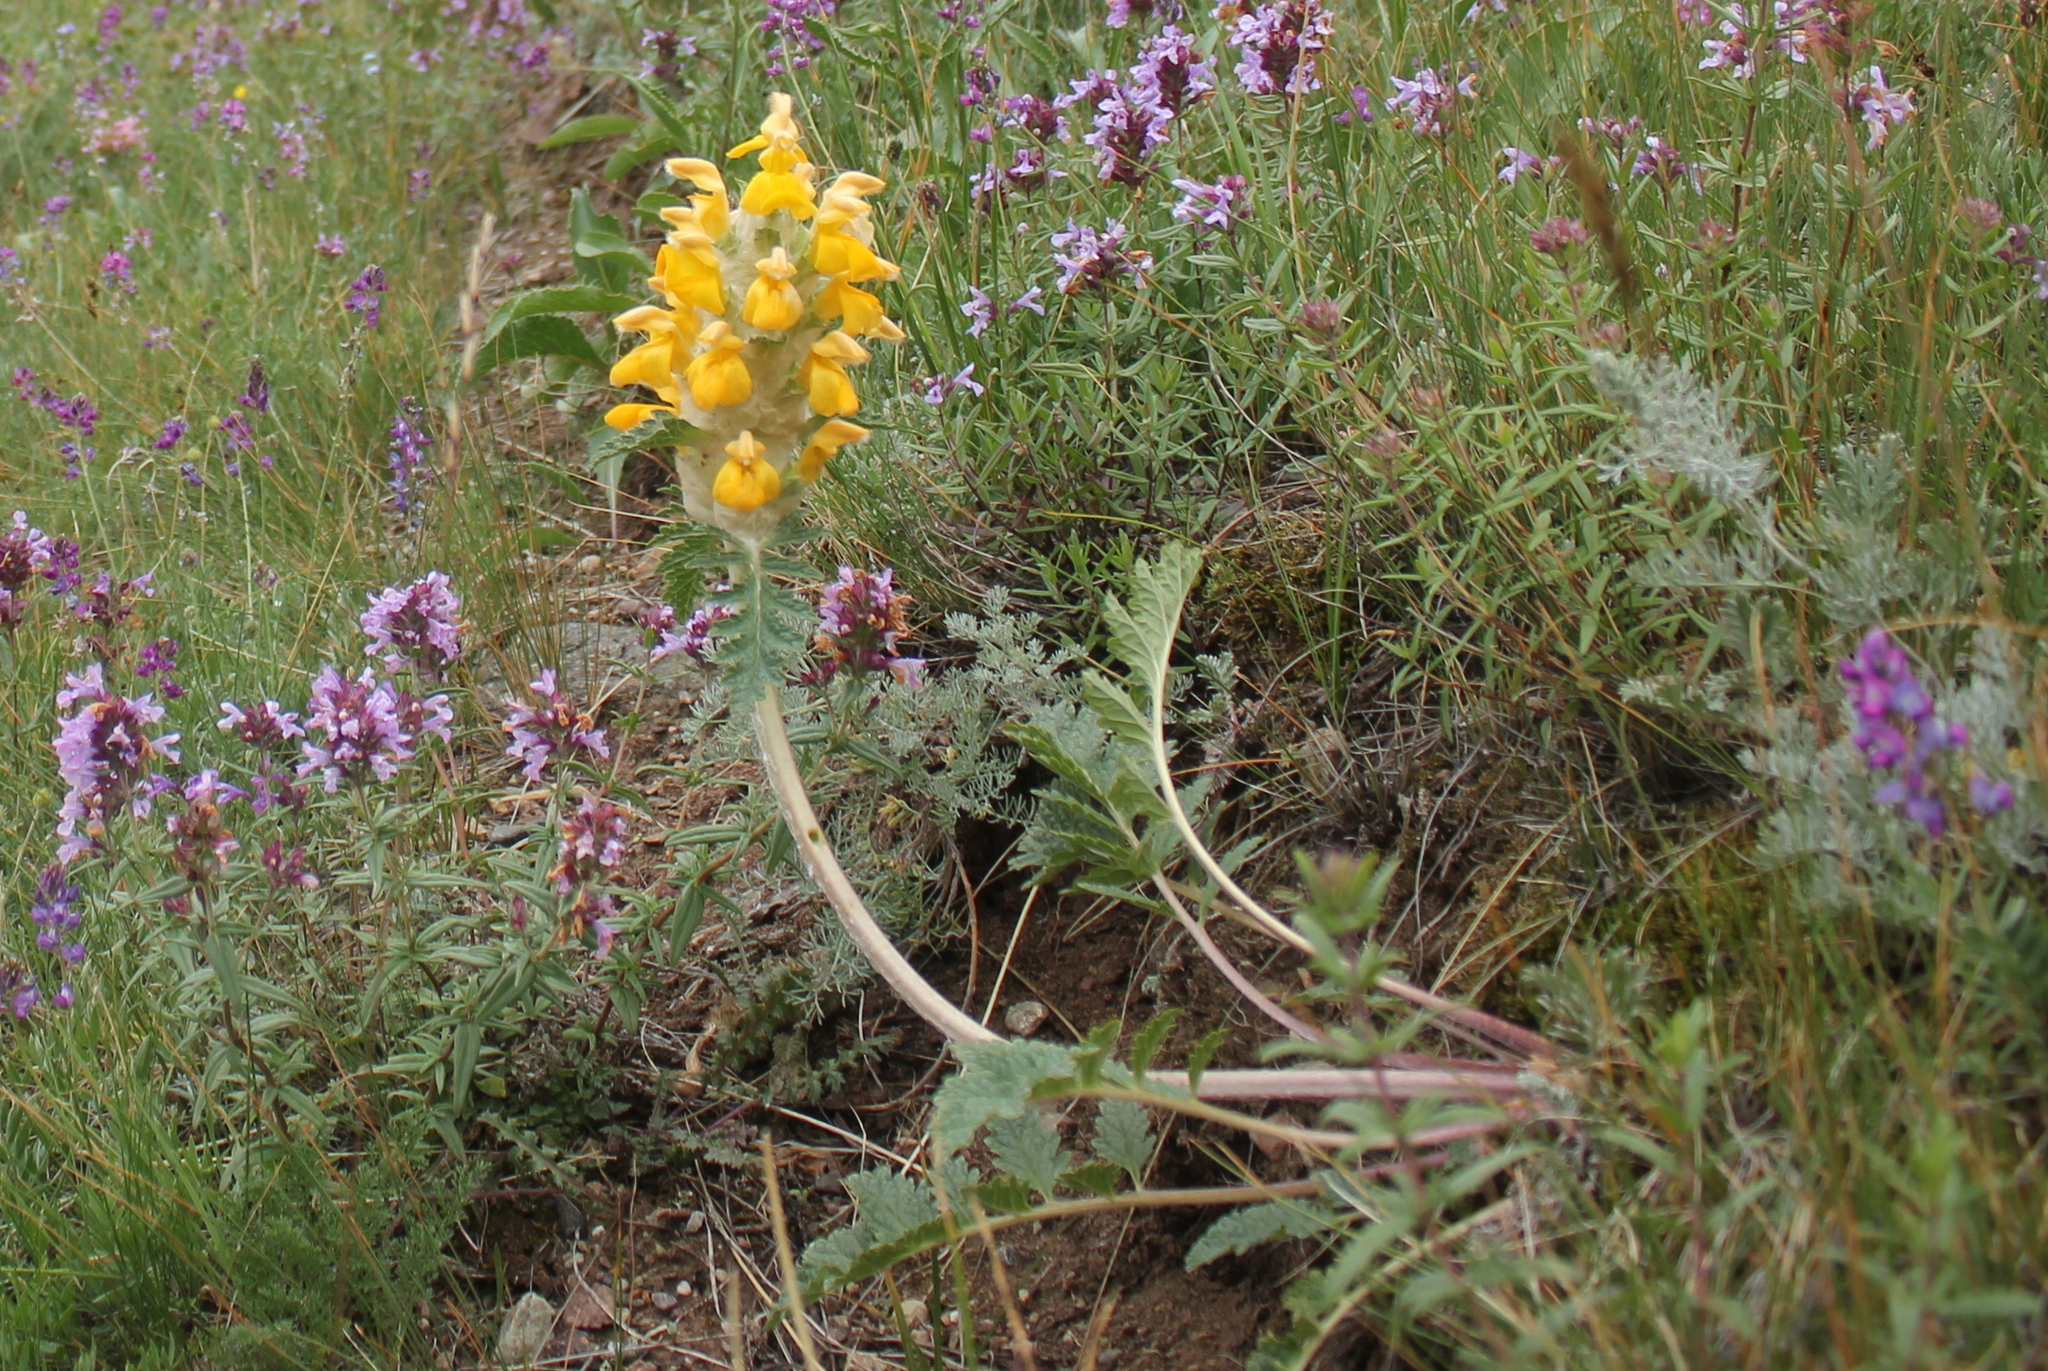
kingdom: Plantae
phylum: Tracheophyta
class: Magnoliopsida
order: Lamiales
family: Lamiaceae
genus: Phlomoides
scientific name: Phlomoides speciosa
